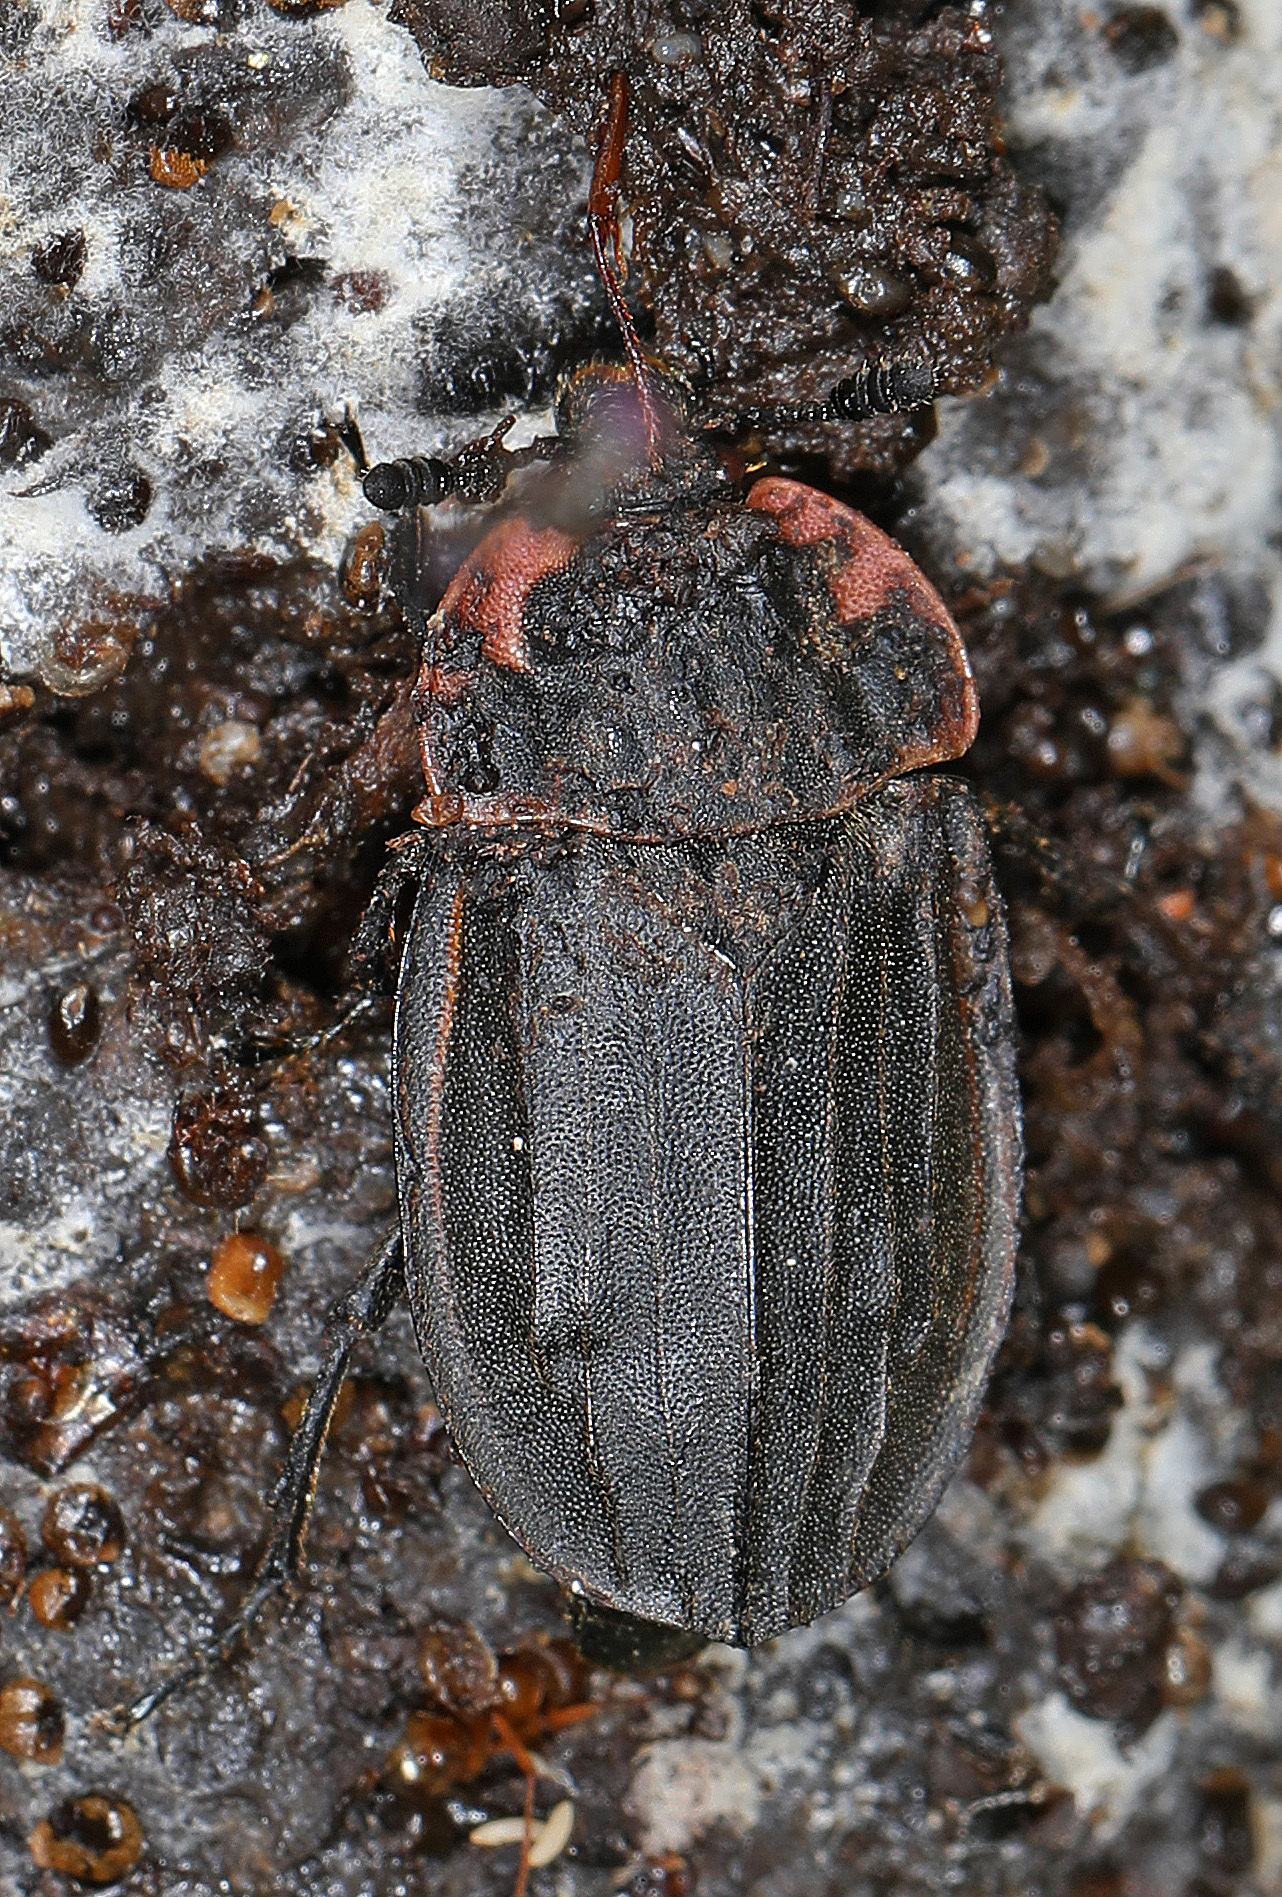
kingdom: Animalia
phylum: Arthropoda
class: Insecta
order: Coleoptera
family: Staphylinidae
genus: Oiceoptoma
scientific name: Oiceoptoma noveboracense
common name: Margined carrion beetle
